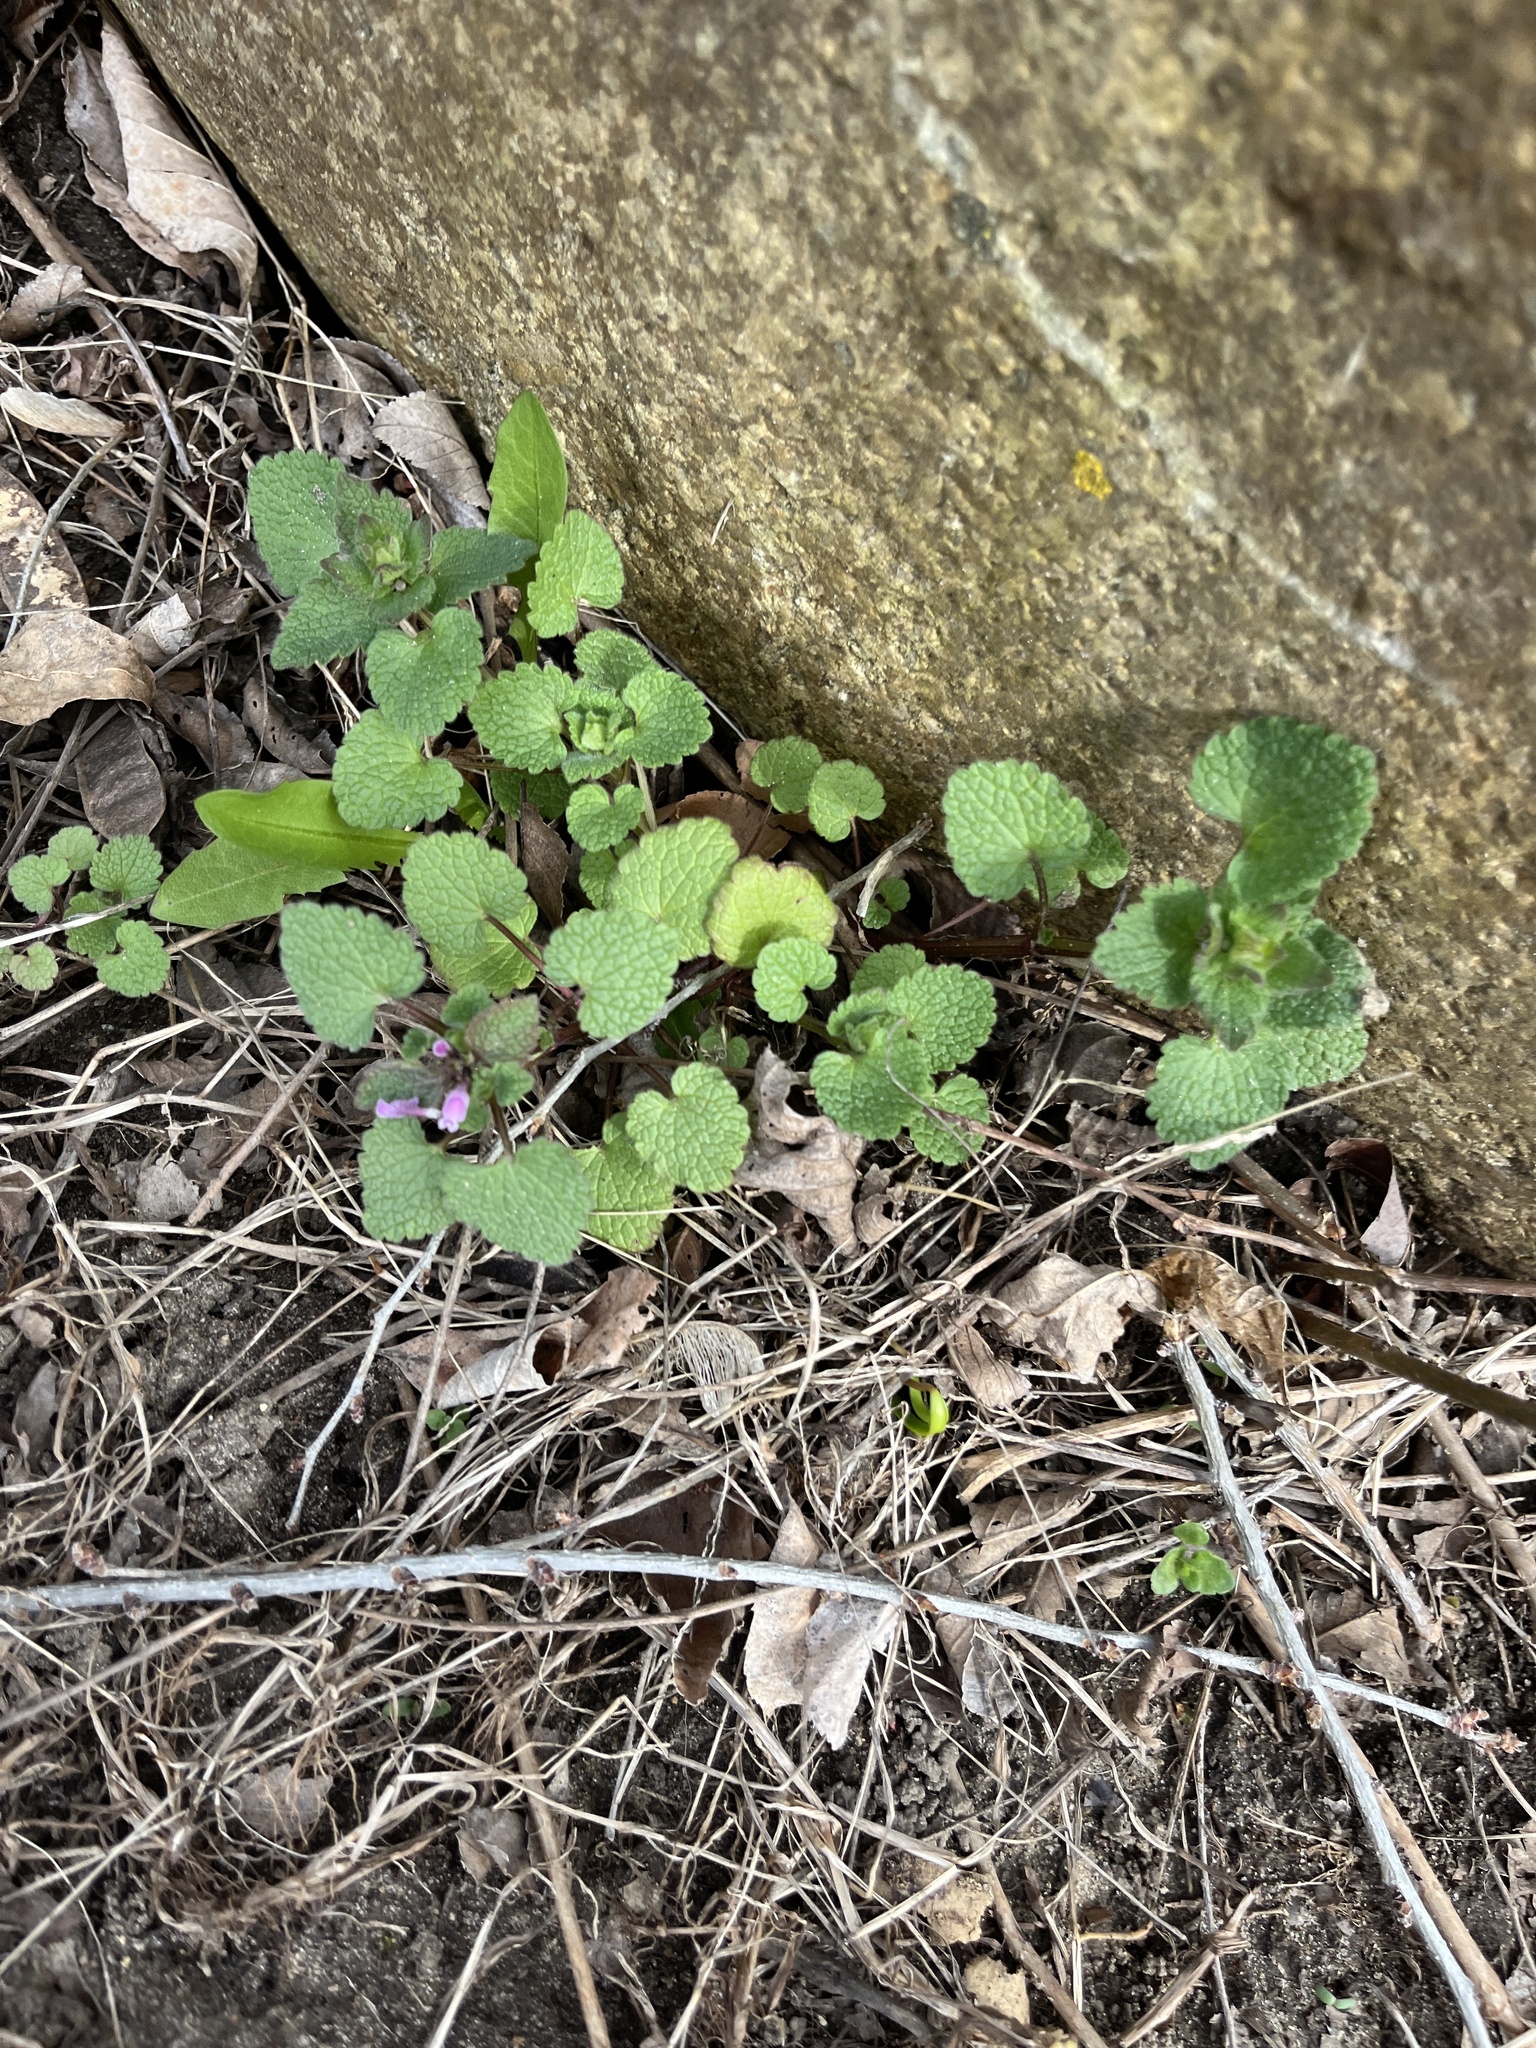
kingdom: Plantae
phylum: Tracheophyta
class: Magnoliopsida
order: Lamiales
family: Lamiaceae
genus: Lamium
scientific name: Lamium purpureum
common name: Red dead-nettle
